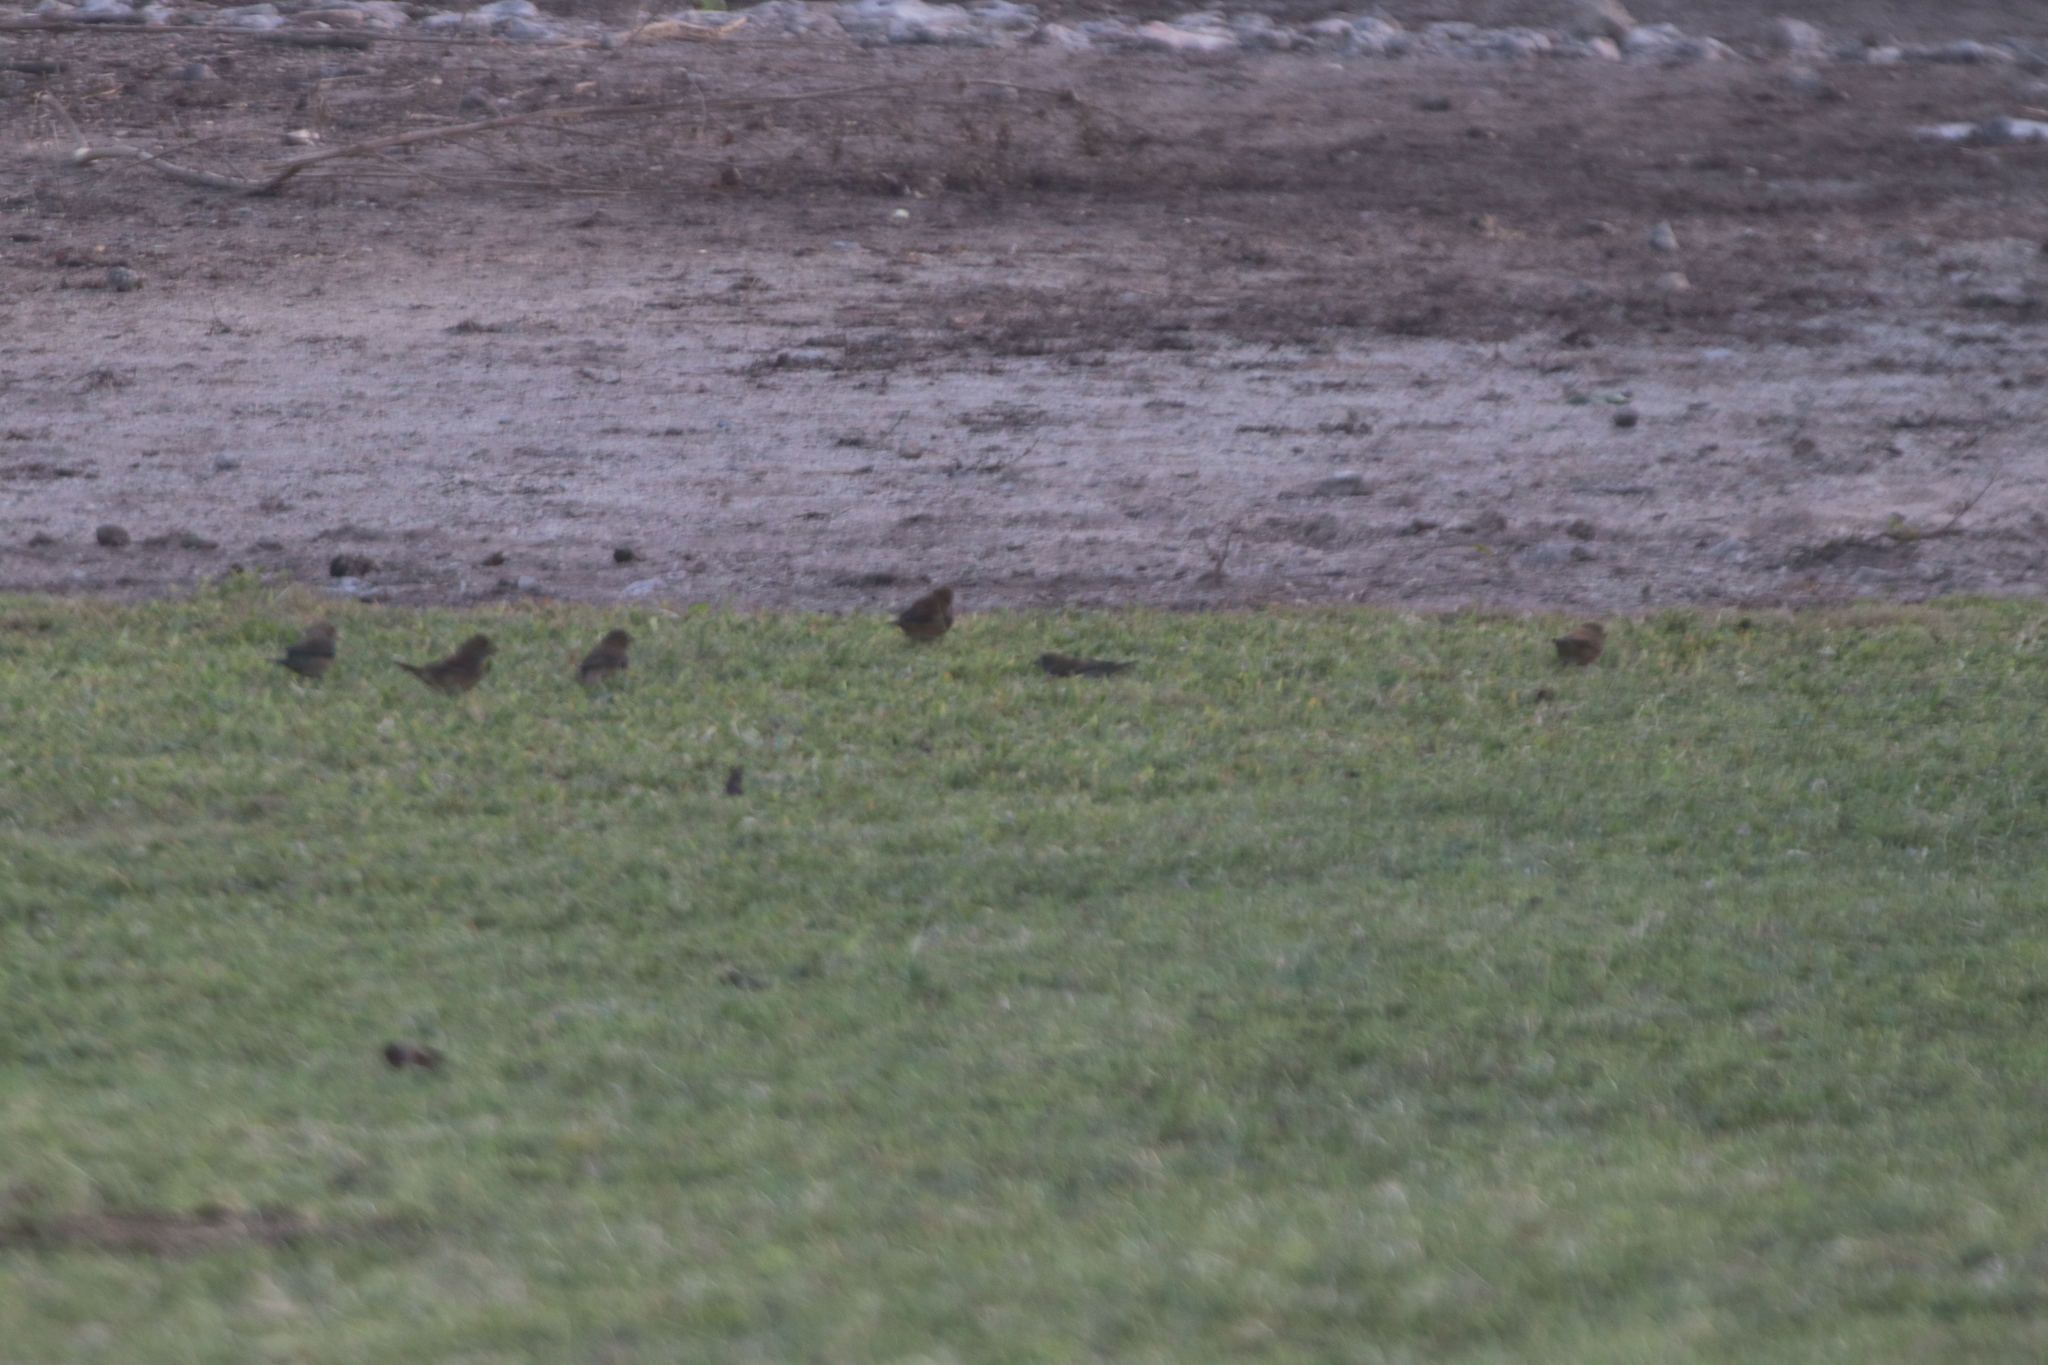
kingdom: Animalia
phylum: Chordata
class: Aves
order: Passeriformes
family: Cardinalidae
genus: Passerina
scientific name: Passerina cyanea
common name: Indigo bunting
